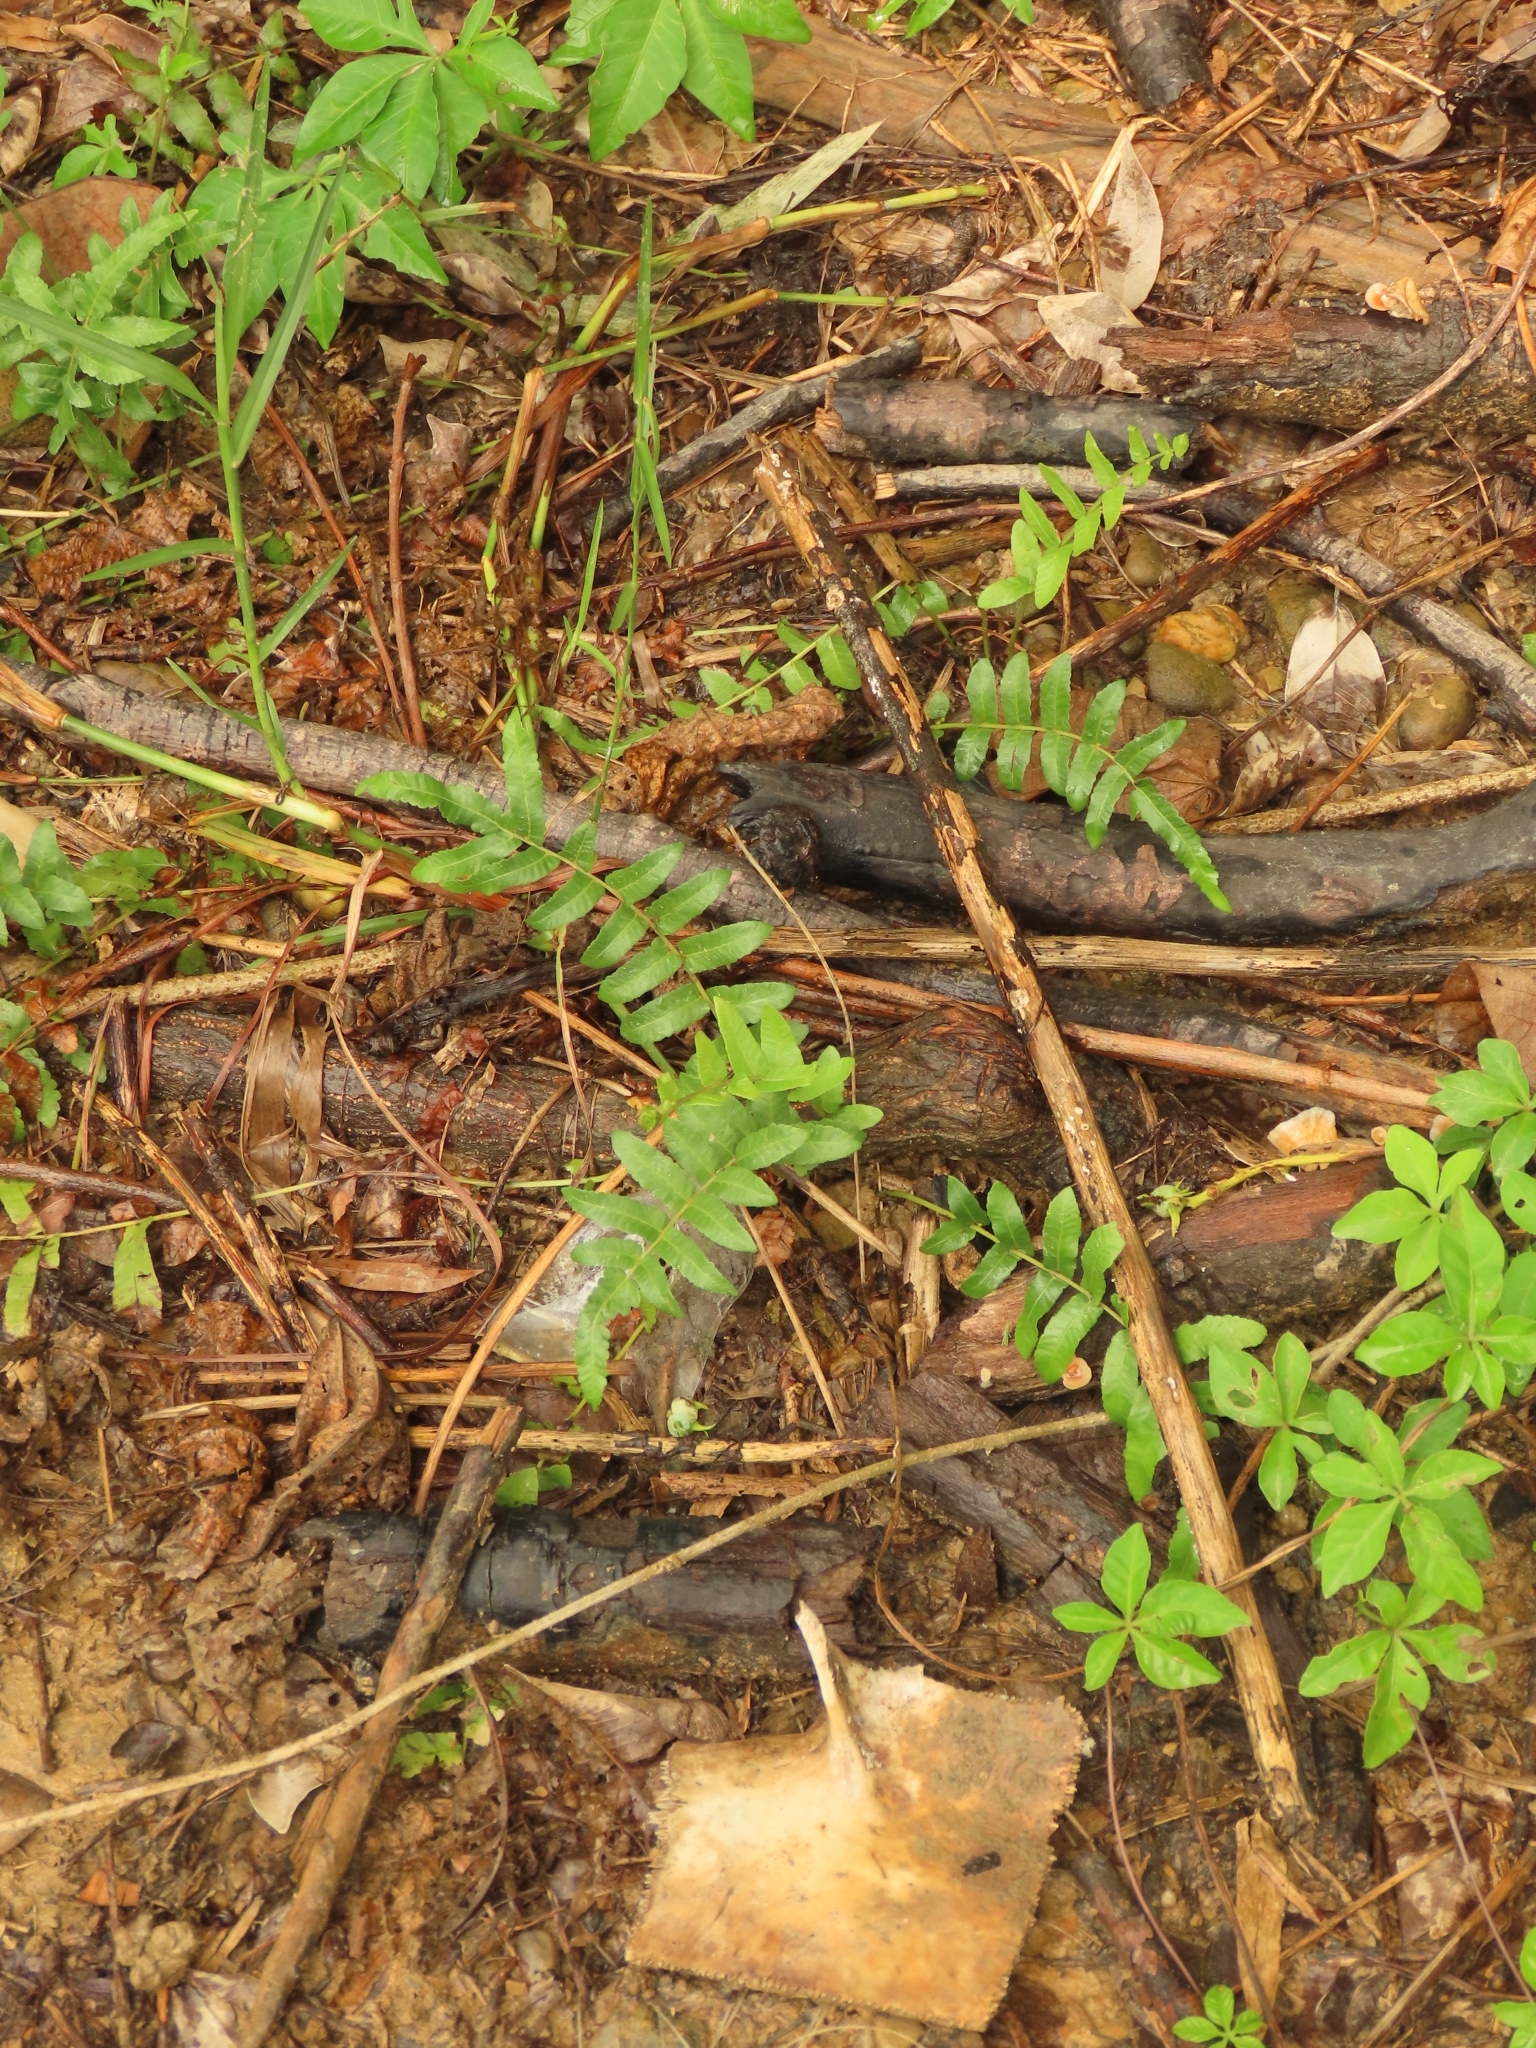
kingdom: Plantae
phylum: Tracheophyta
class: Polypodiopsida
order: Polypodiales
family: Thelypteridaceae
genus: Ampelopteris
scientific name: Ampelopteris prolifera
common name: Riverine scrambler
